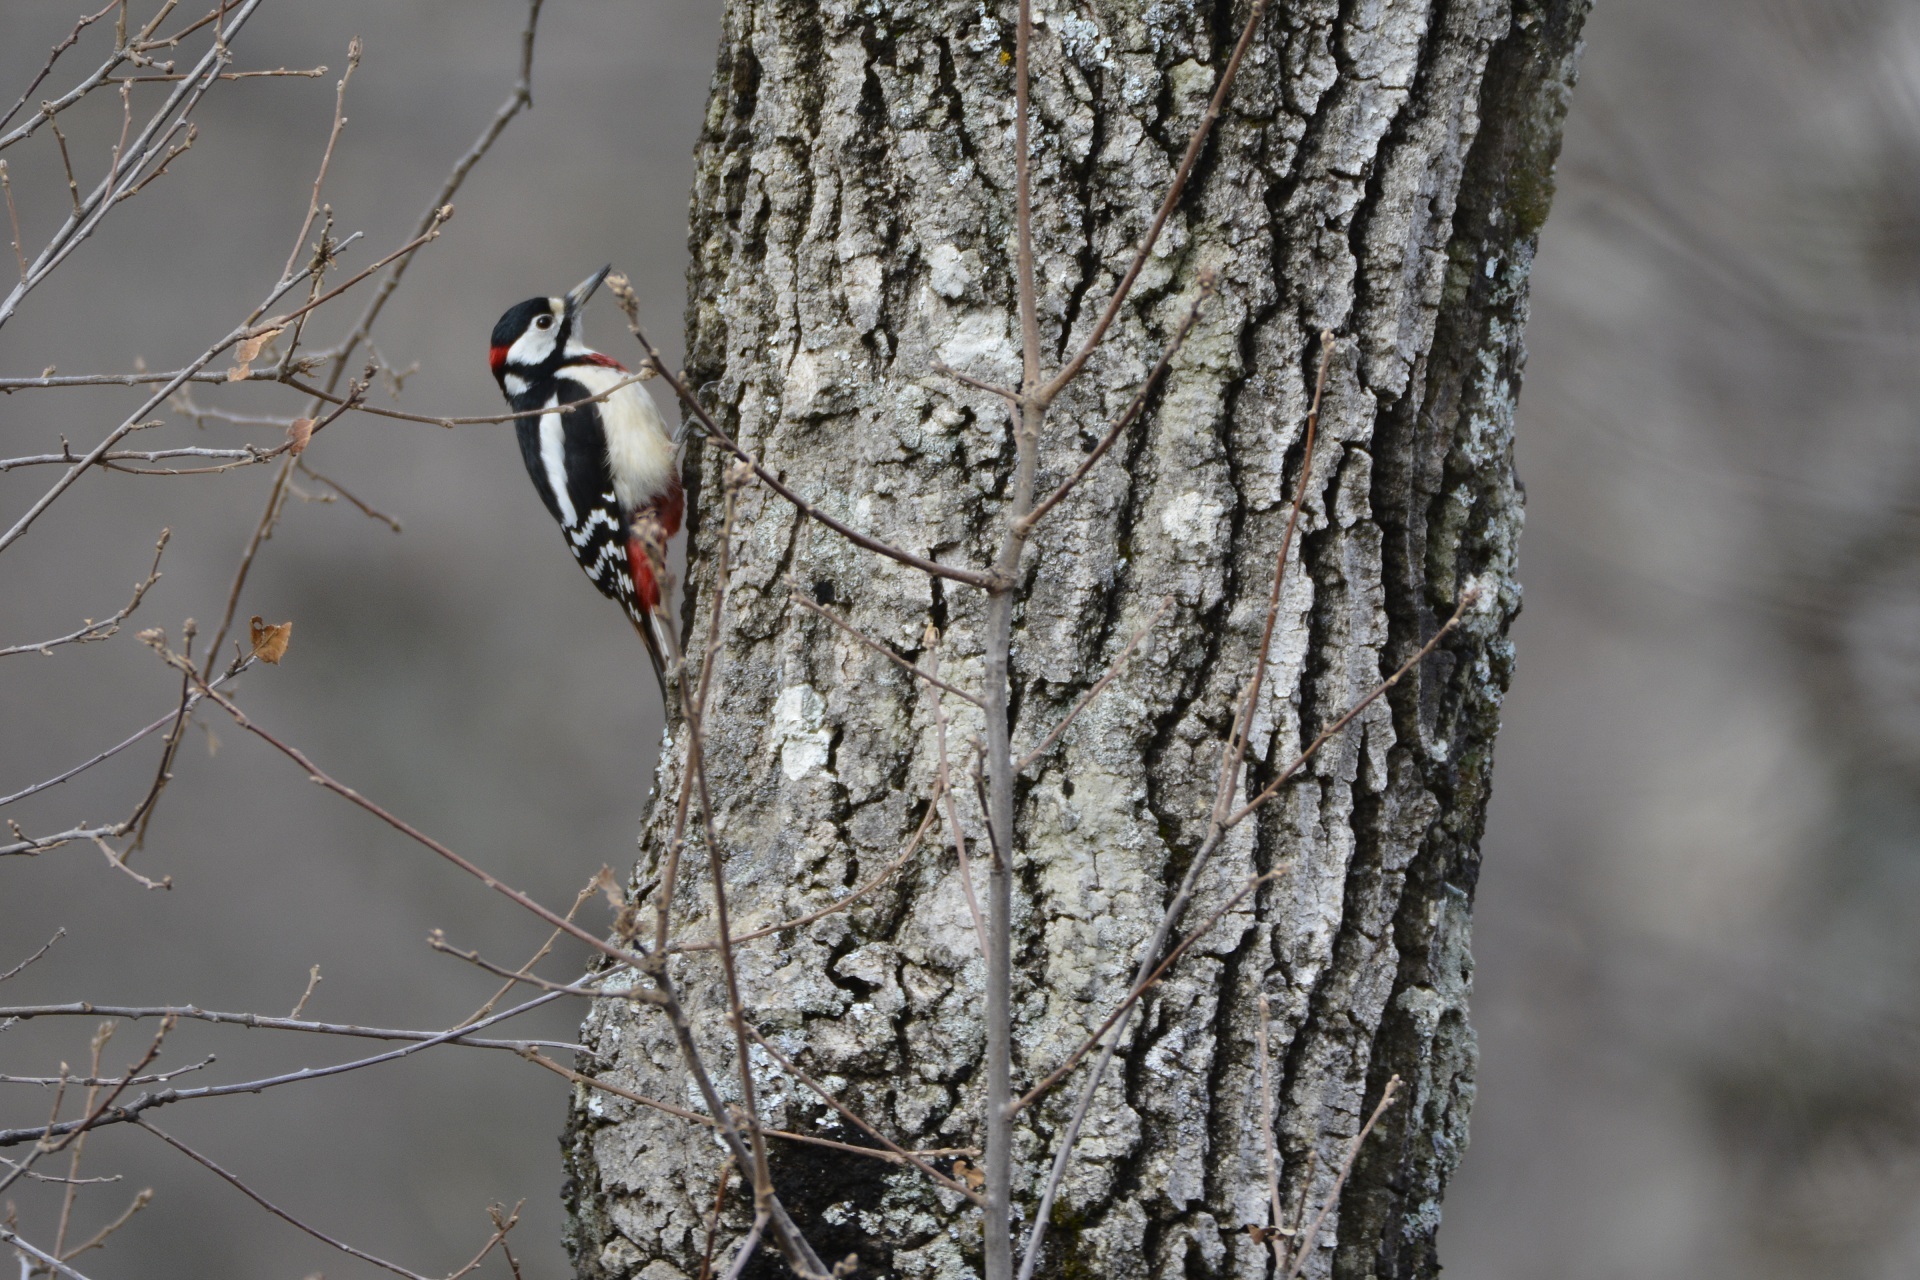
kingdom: Animalia
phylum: Chordata
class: Aves
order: Piciformes
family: Picidae
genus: Dendrocopos
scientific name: Dendrocopos major
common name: Great spotted woodpecker
